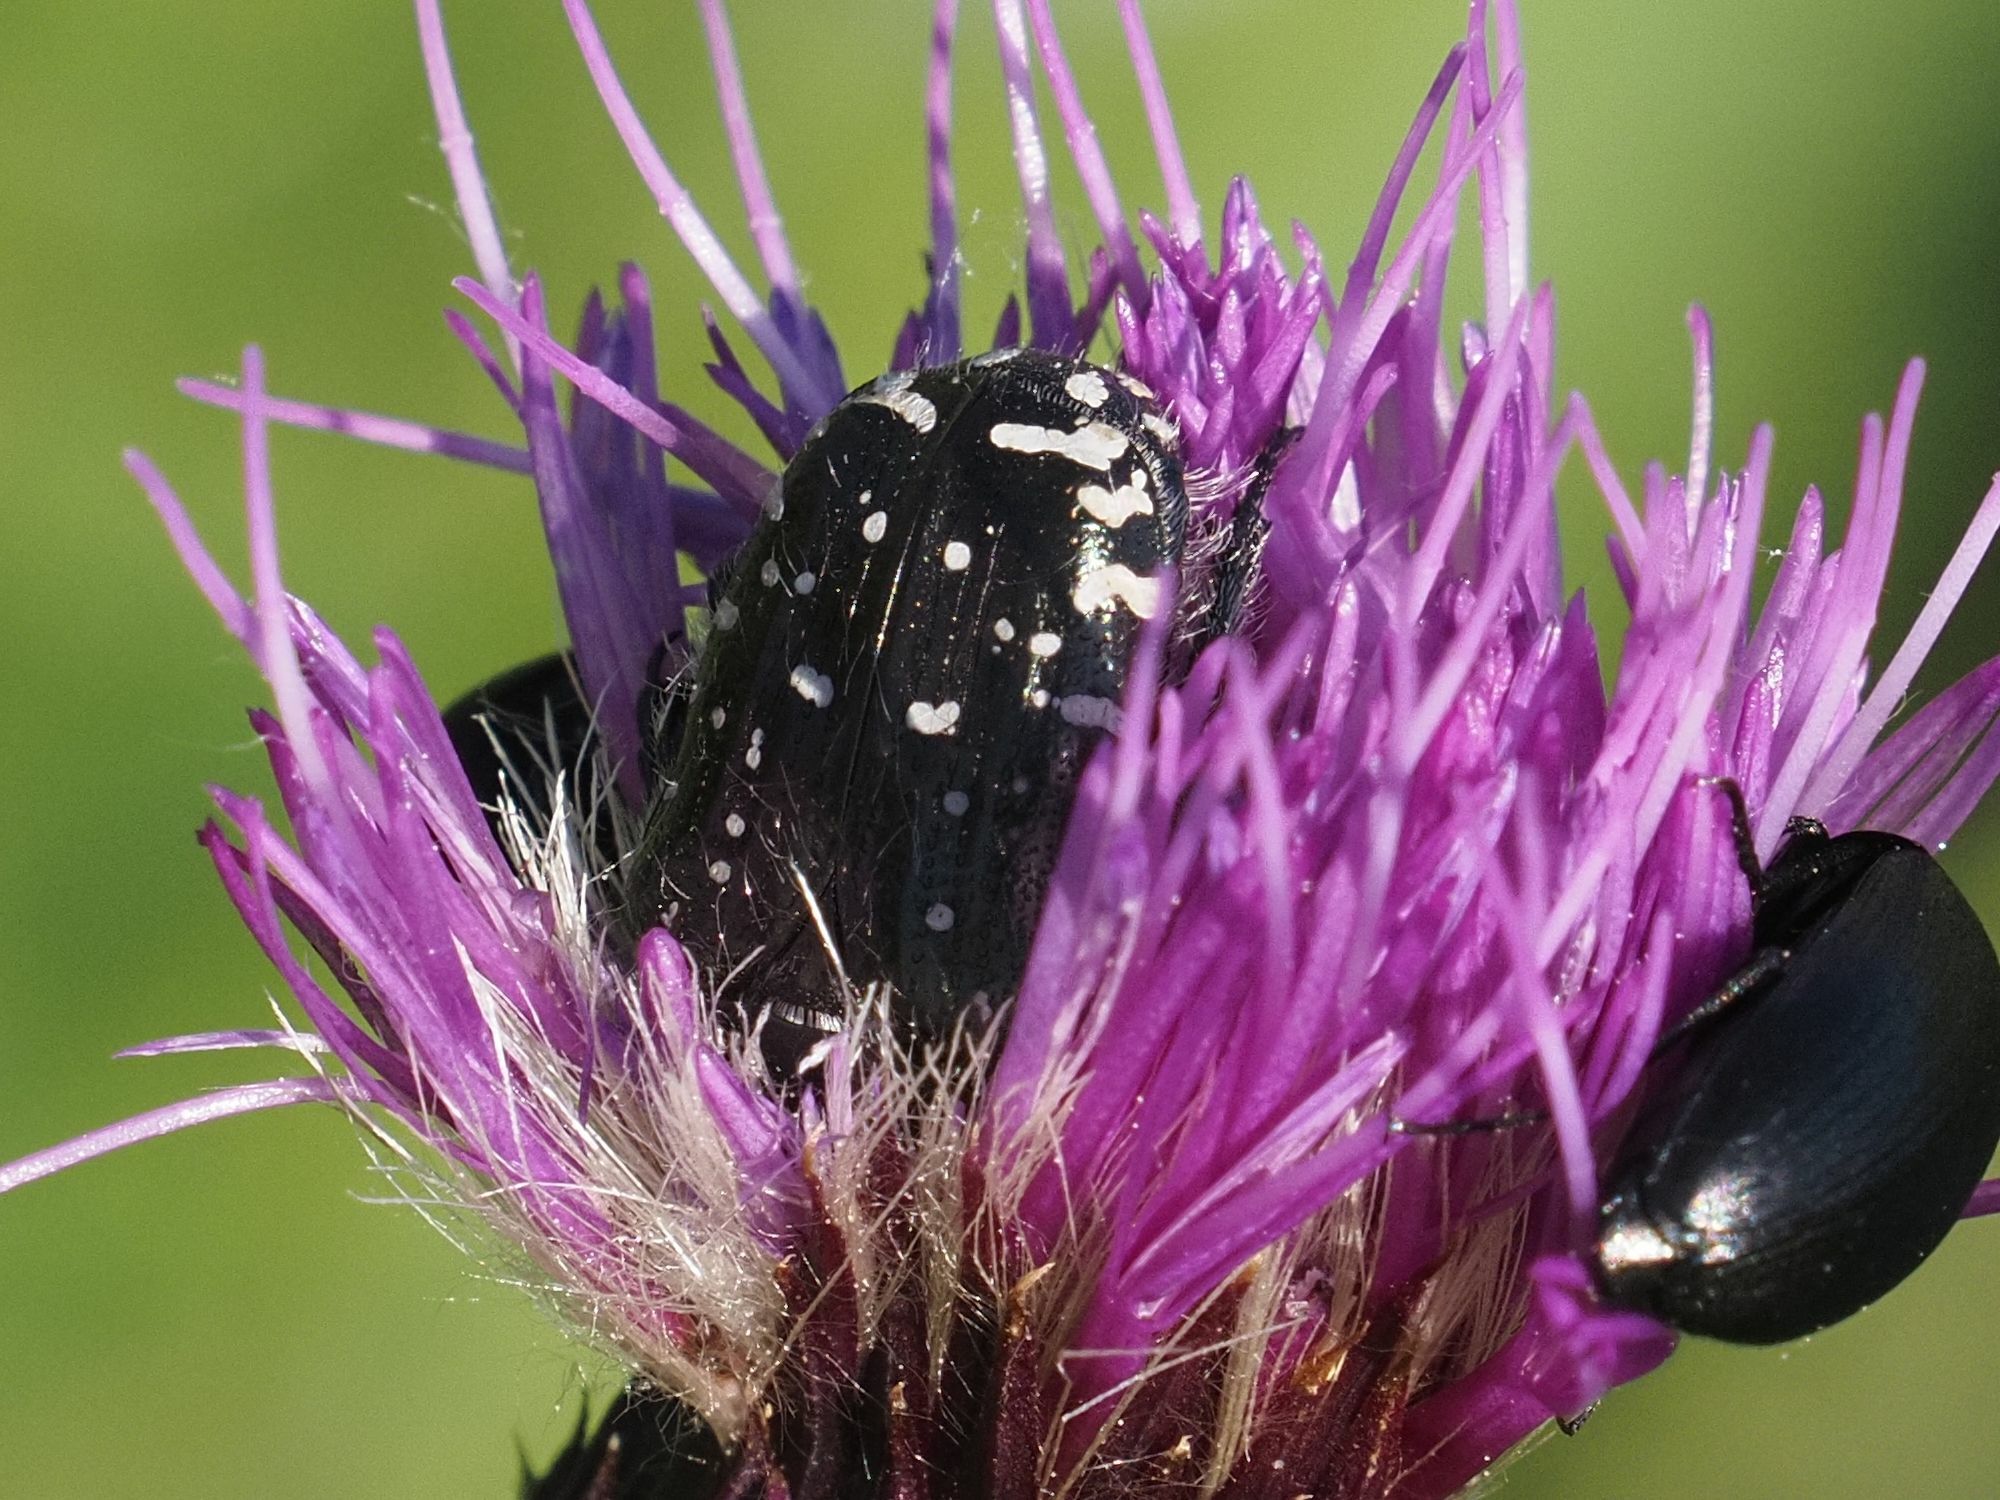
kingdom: Animalia
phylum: Arthropoda
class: Insecta
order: Coleoptera
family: Scarabaeidae
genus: Oxythyrea
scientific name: Oxythyrea funesta
